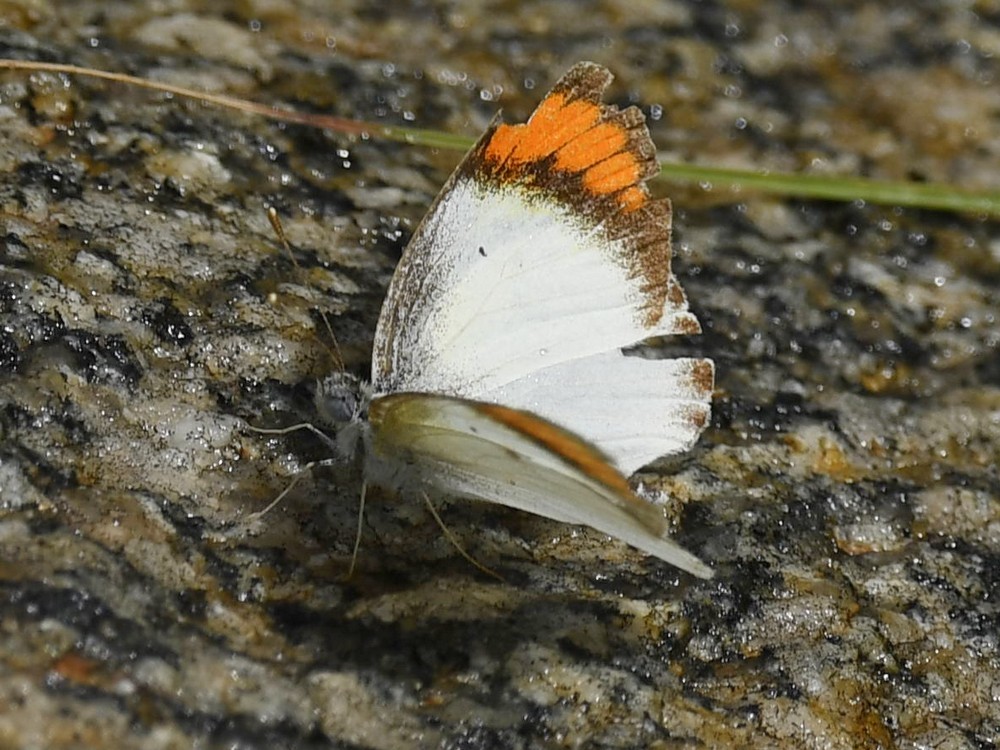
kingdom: Animalia
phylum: Arthropoda
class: Insecta
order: Lepidoptera
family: Pieridae
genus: Colotis
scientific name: Colotis aurora
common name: Plain orange-tip
